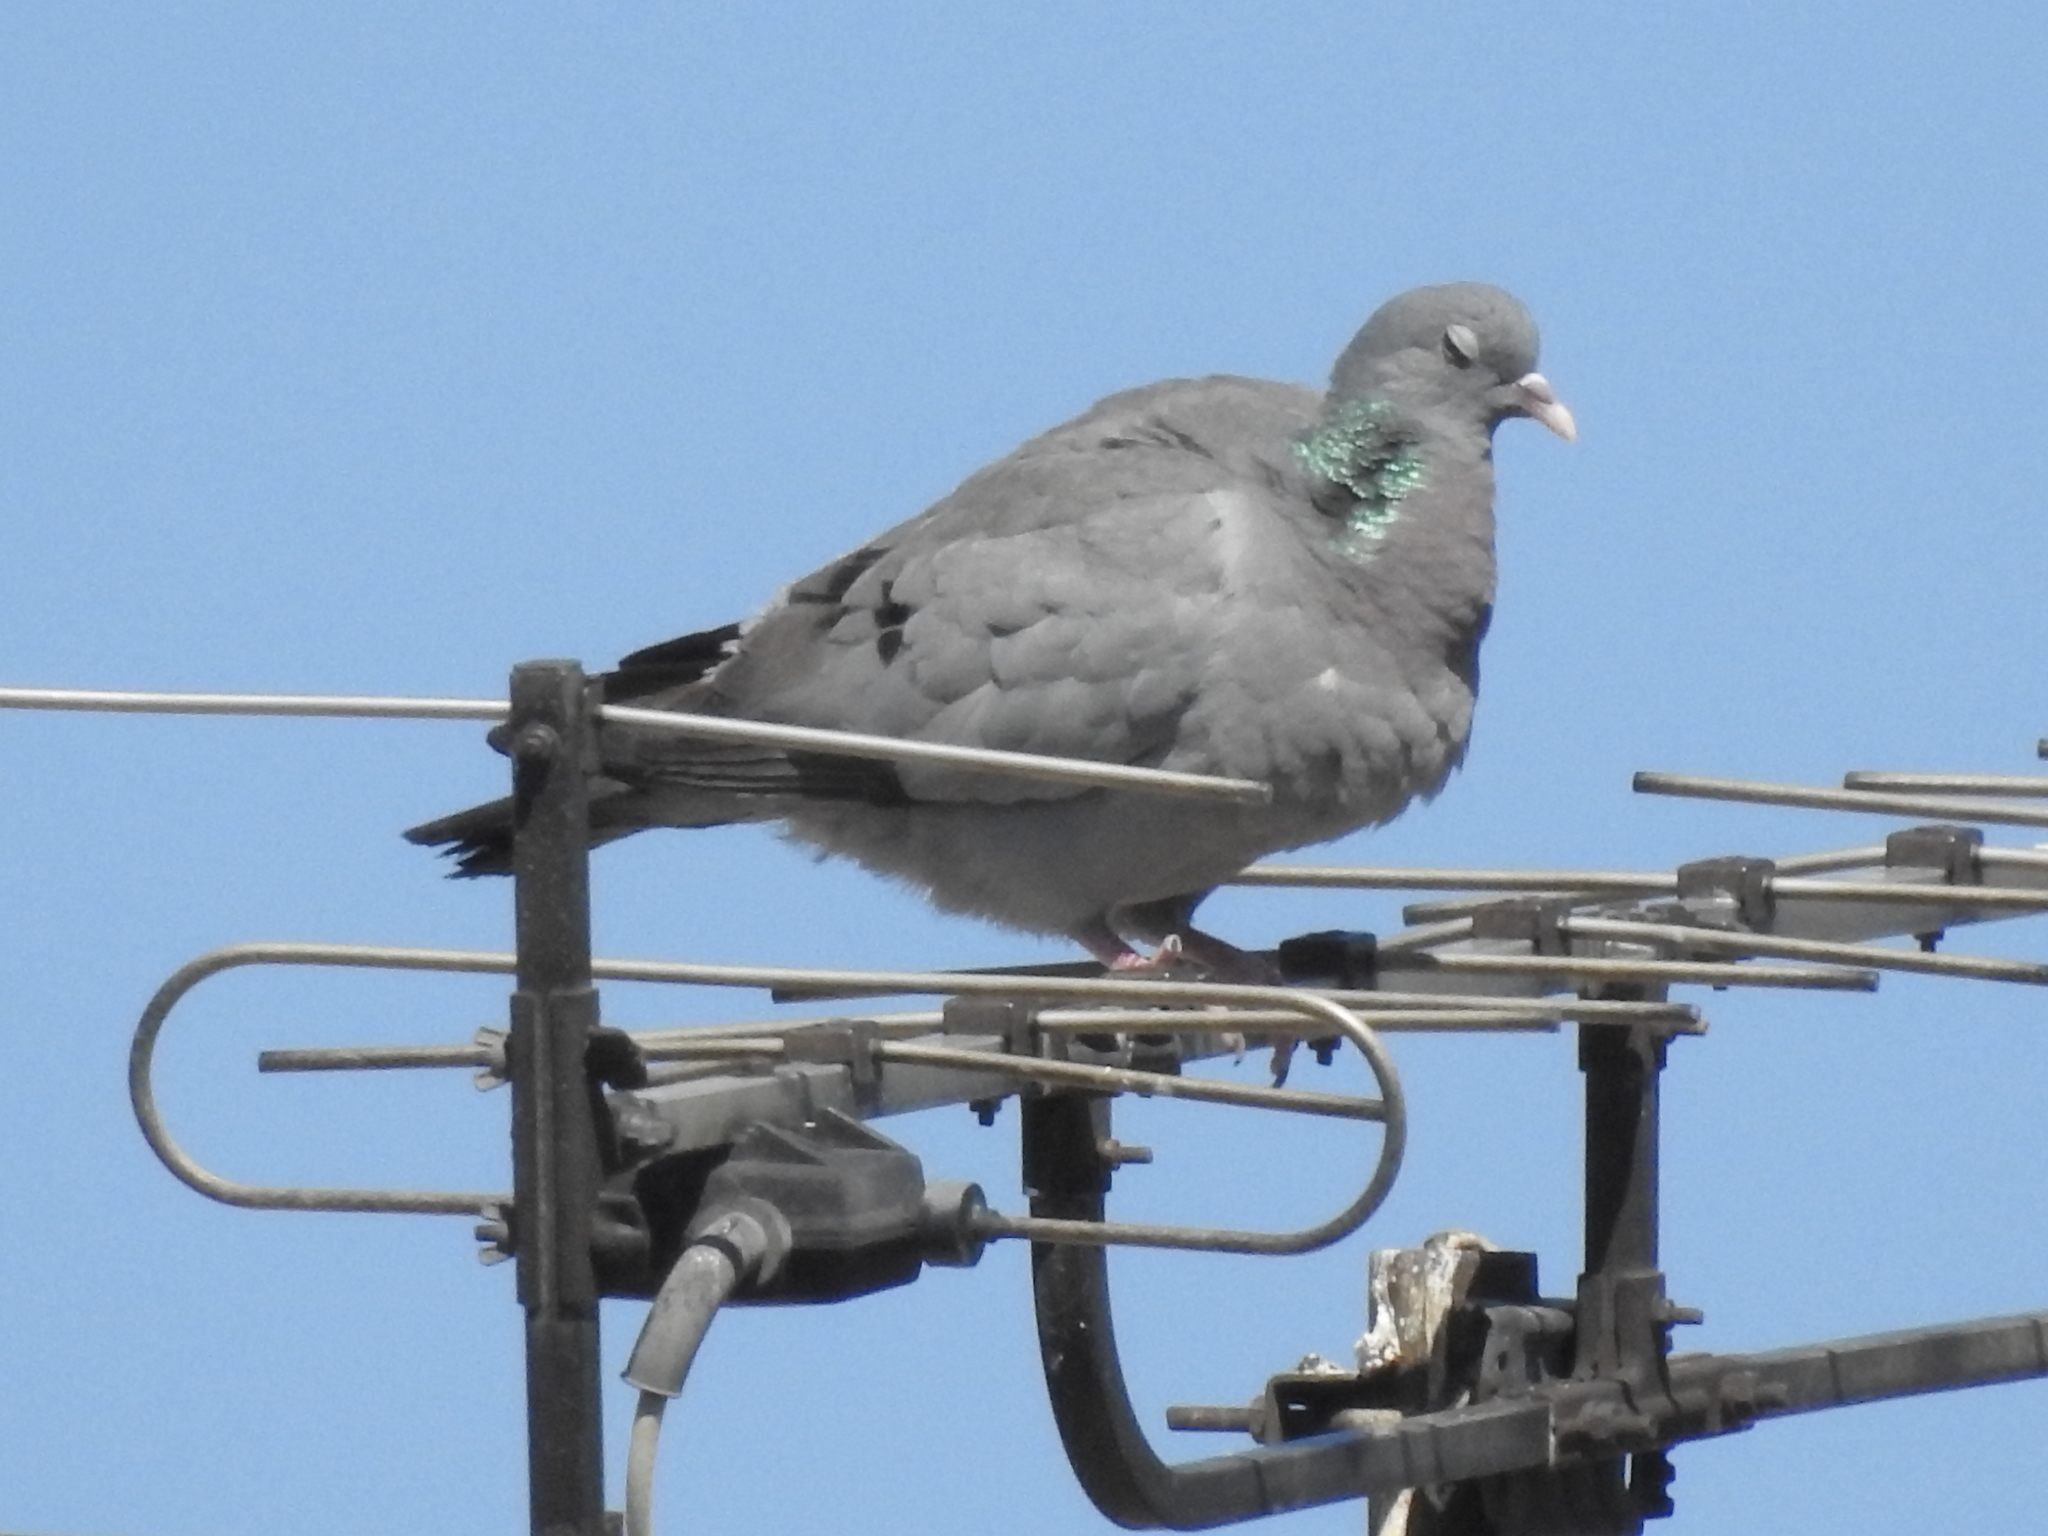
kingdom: Animalia
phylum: Chordata
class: Aves
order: Columbiformes
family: Columbidae
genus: Columba
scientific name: Columba oenas
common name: Stock dove
